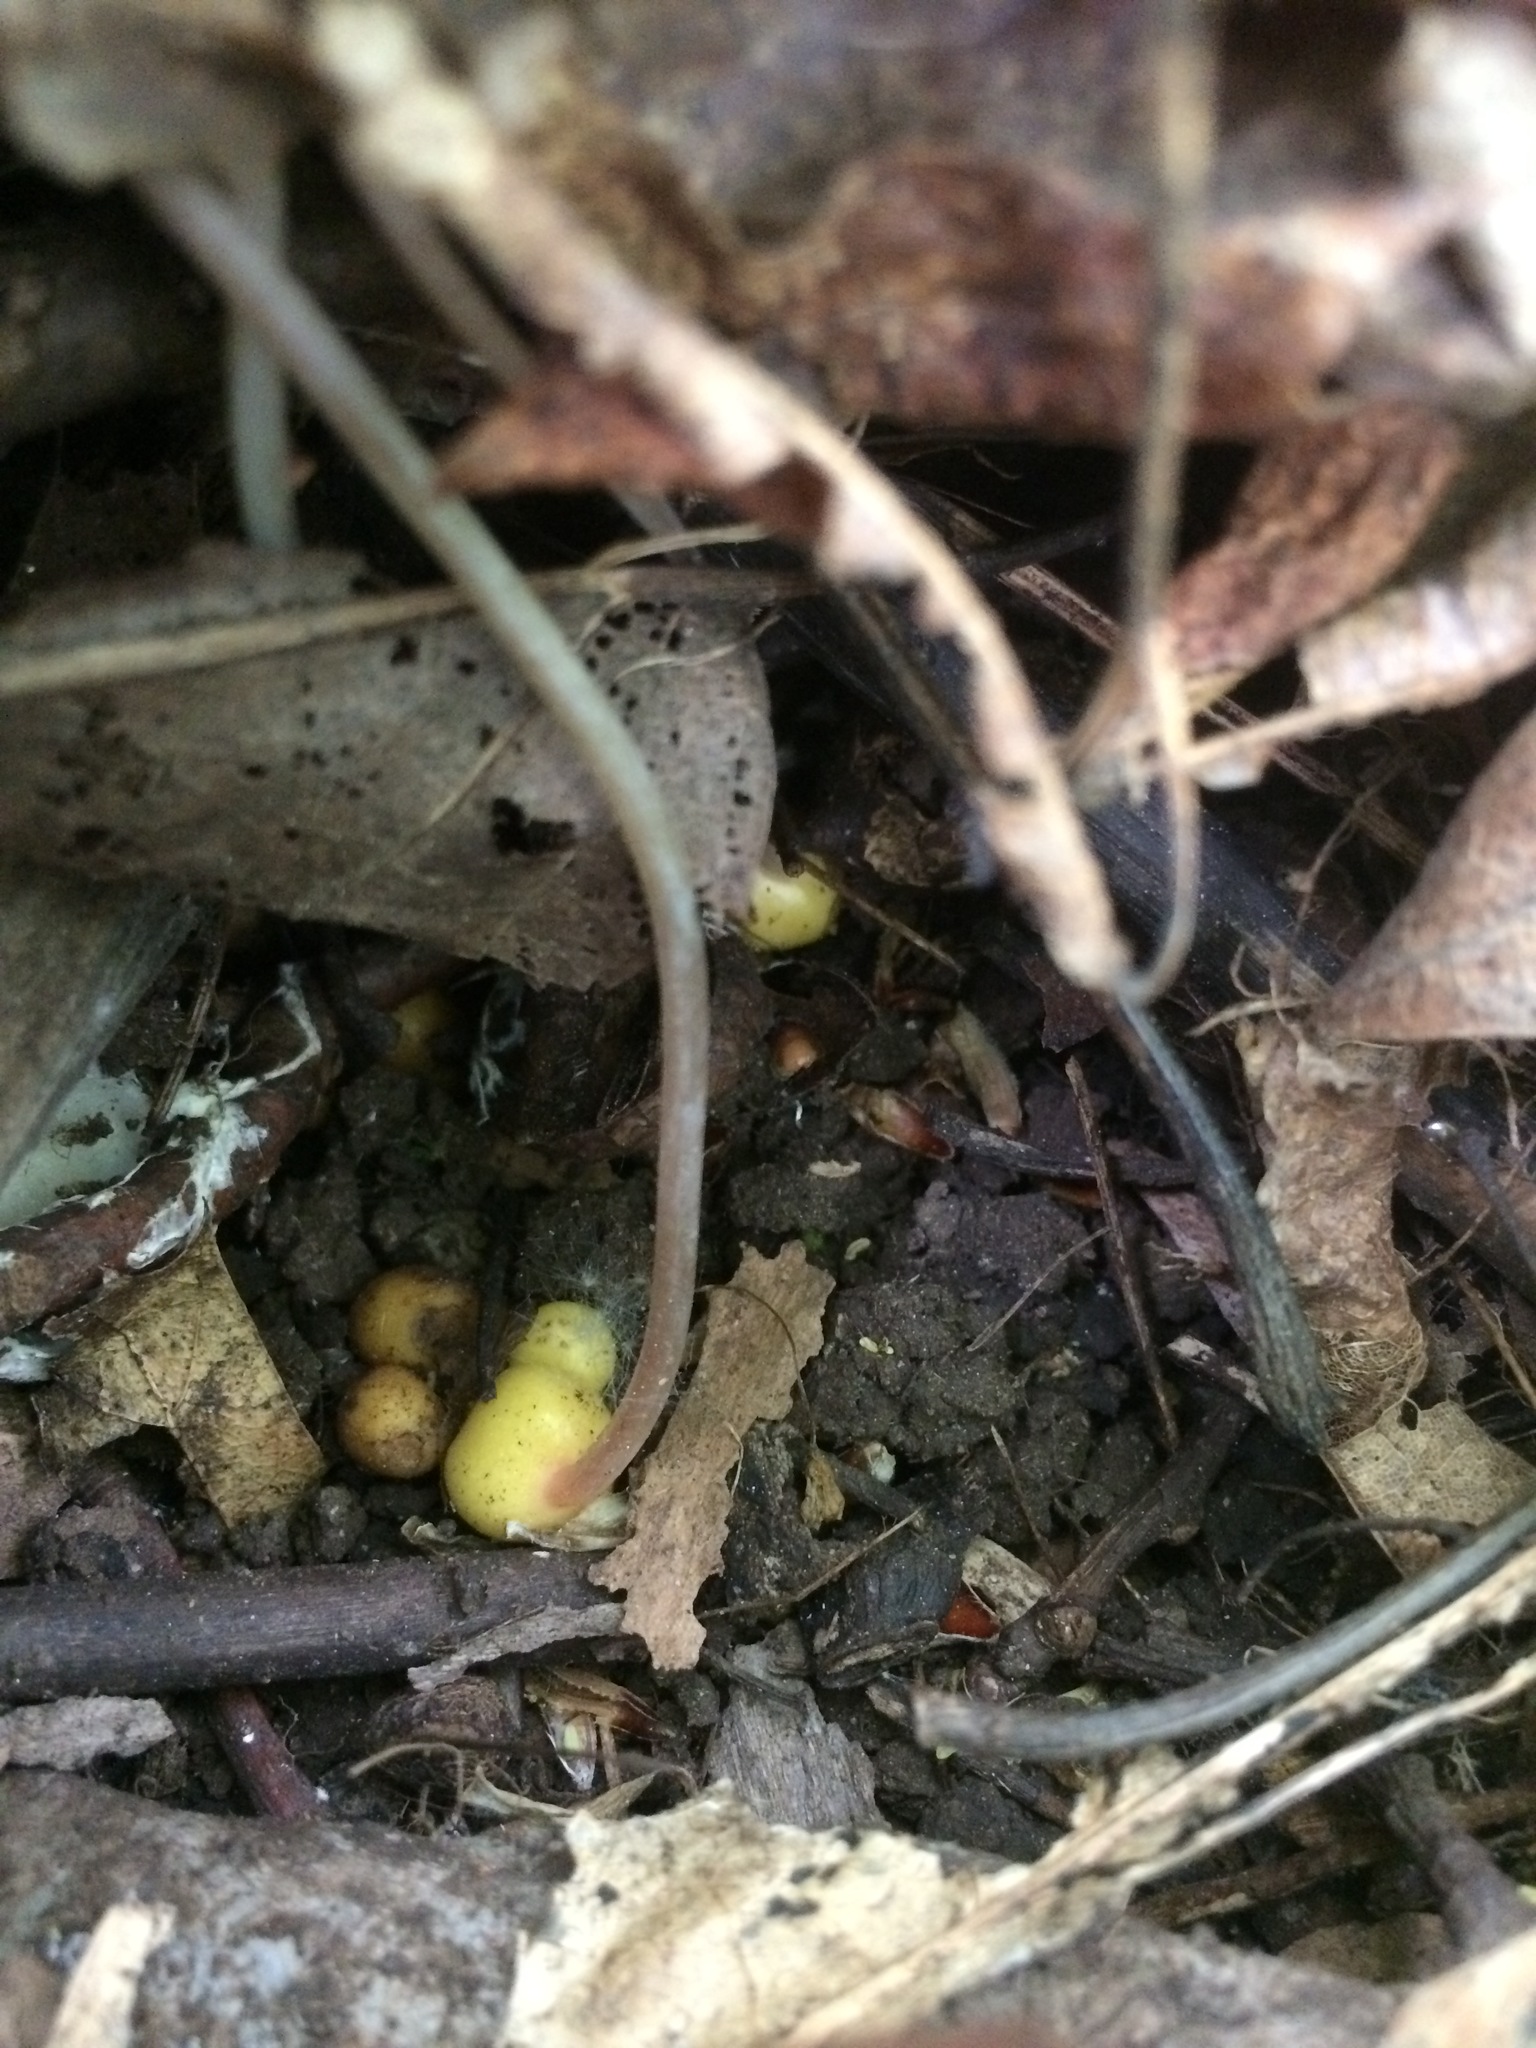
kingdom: Plantae
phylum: Tracheophyta
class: Magnoliopsida
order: Ranunculales
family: Papaveraceae
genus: Dicentra
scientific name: Dicentra canadensis
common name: Squirrel-corn
